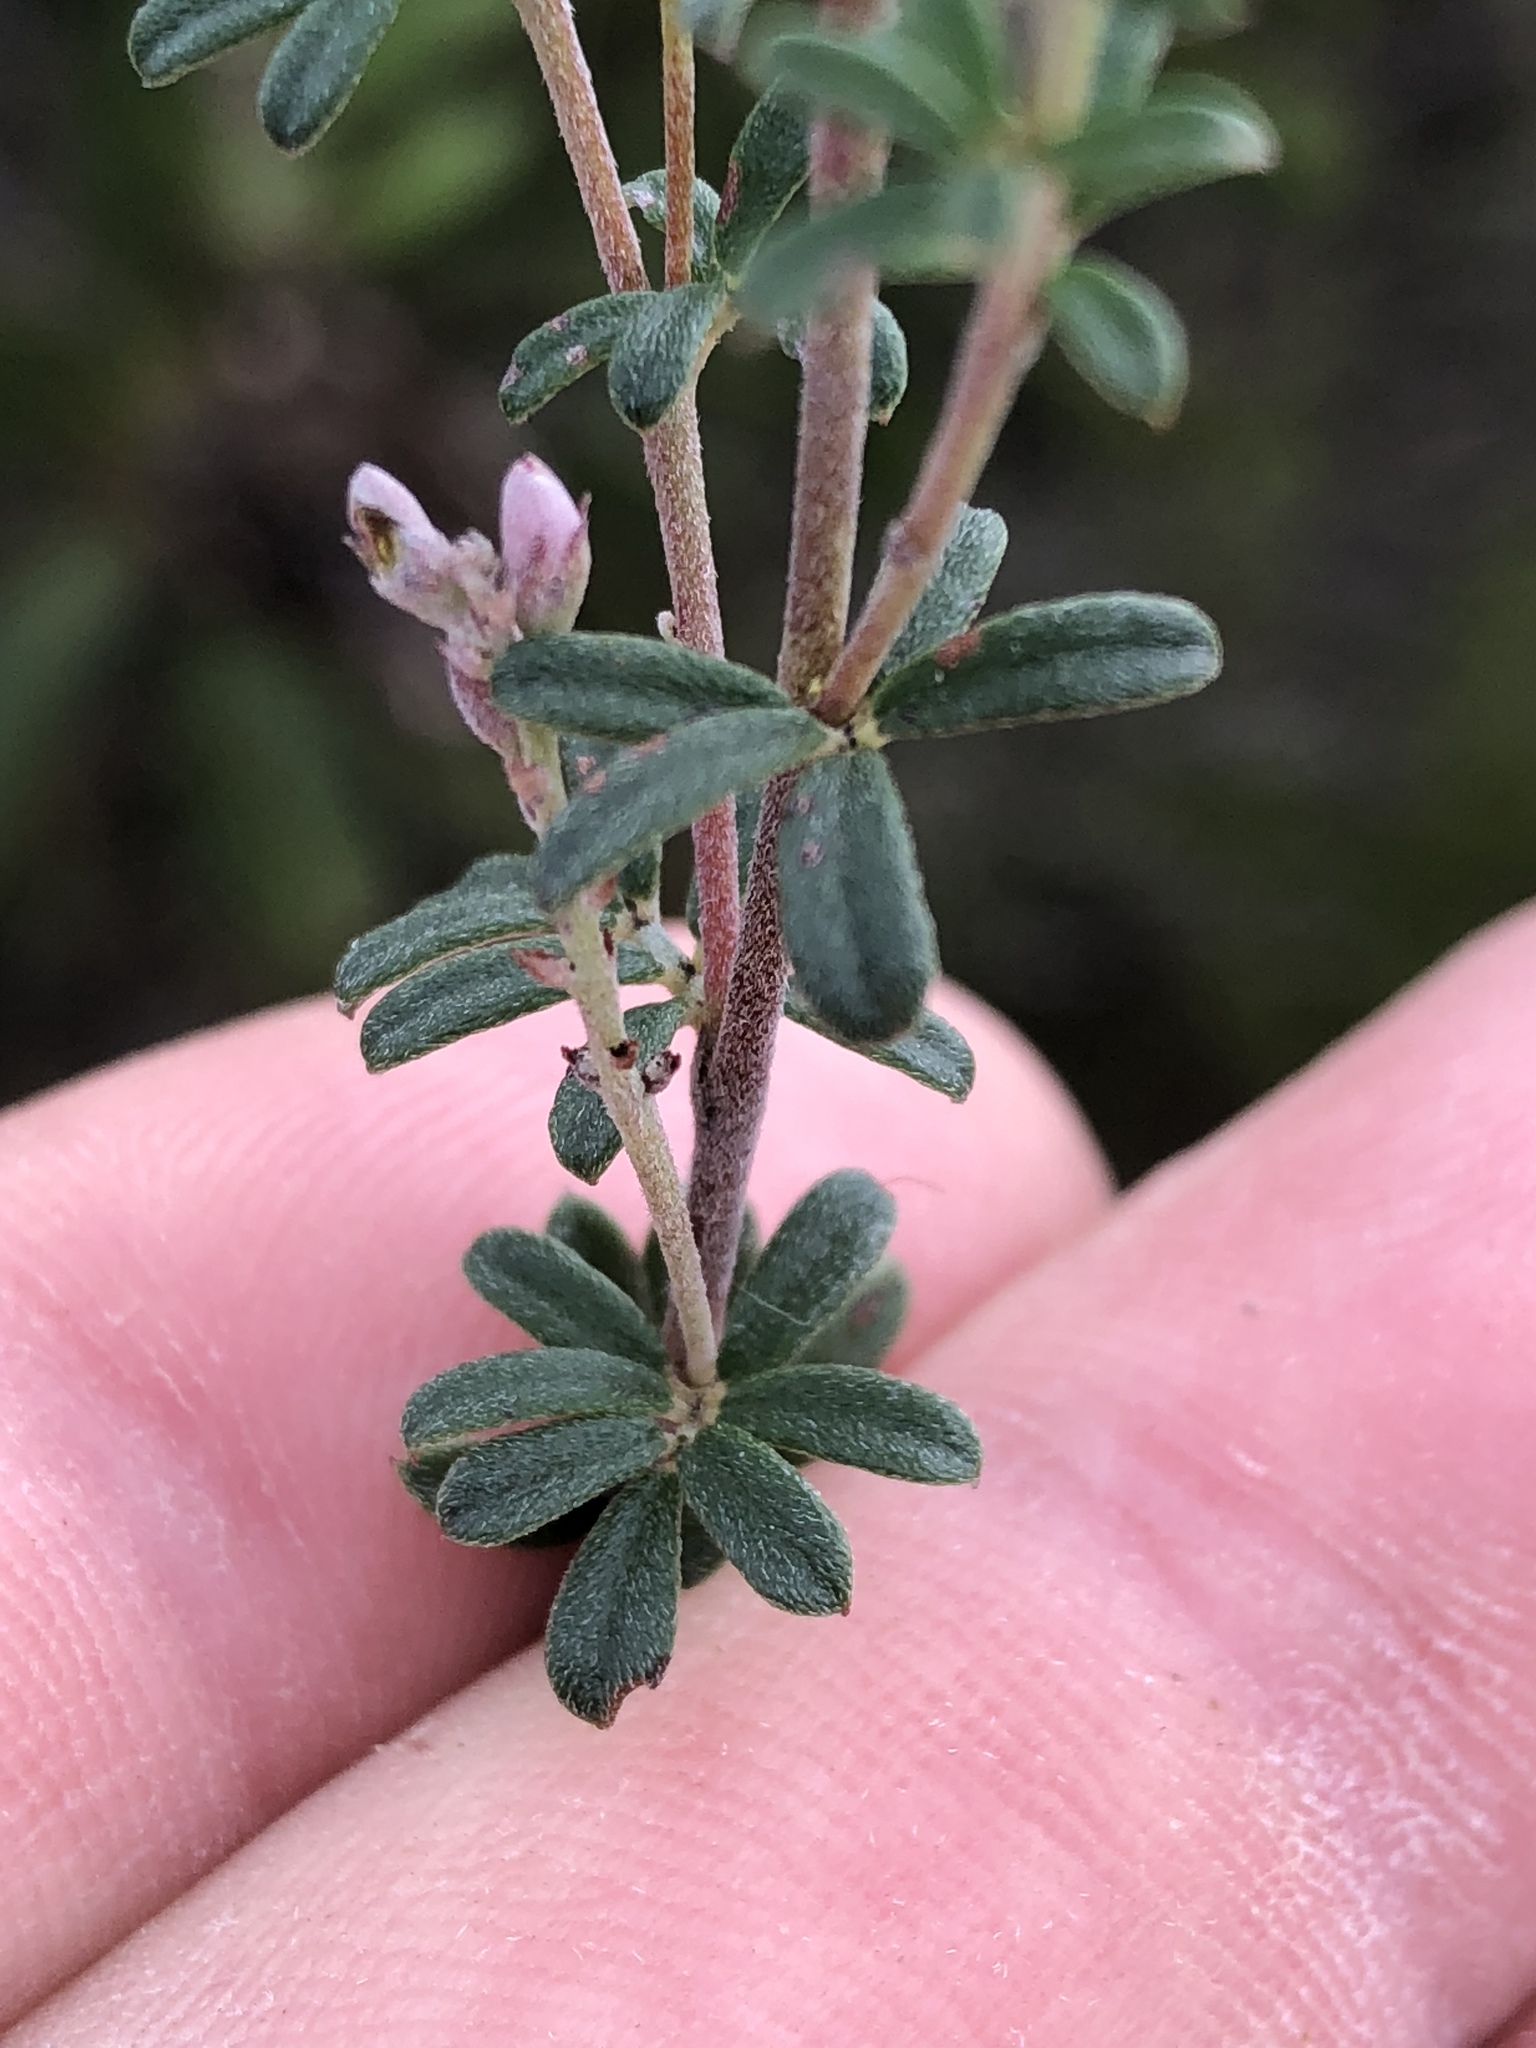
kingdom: Plantae
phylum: Tracheophyta
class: Magnoliopsida
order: Fabales
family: Fabaceae
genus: Indigofera
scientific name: Indigofera
